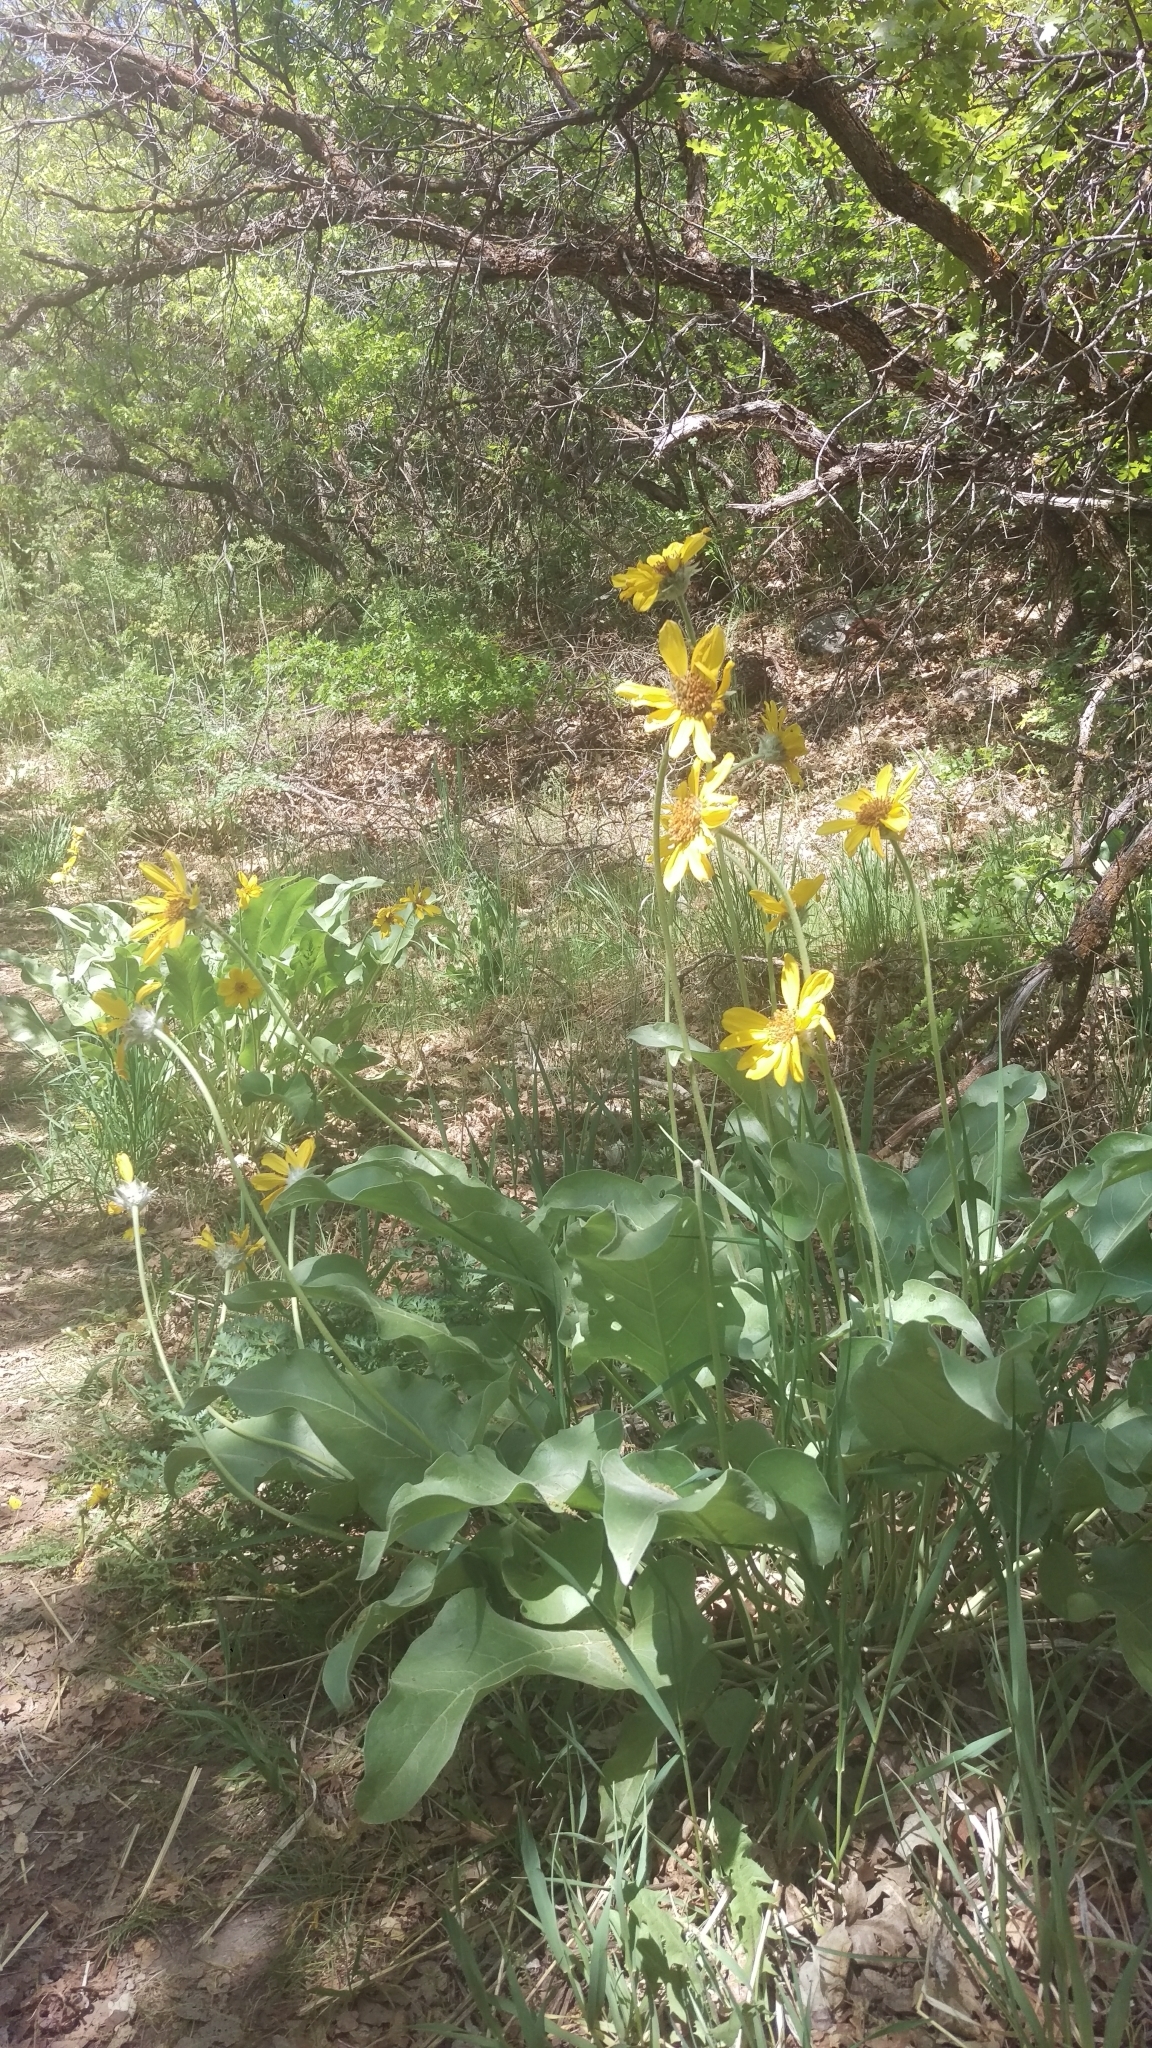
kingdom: Plantae
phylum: Tracheophyta
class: Magnoliopsida
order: Asterales
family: Asteraceae
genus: Wyethia
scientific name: Wyethia sagittata
